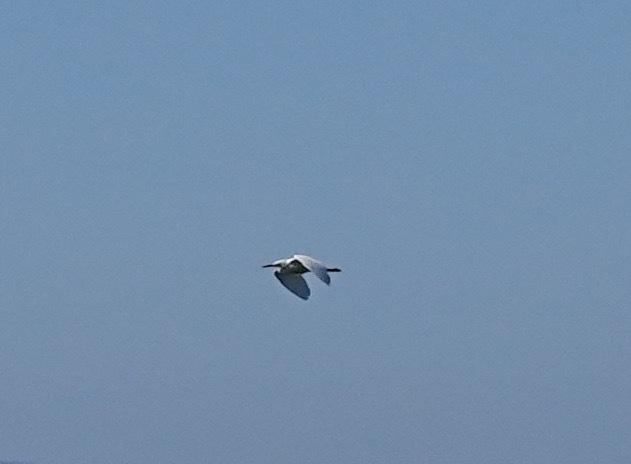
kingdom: Animalia
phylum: Chordata
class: Aves
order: Pelecaniformes
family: Ardeidae
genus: Egretta
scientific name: Egretta thula
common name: Snowy egret
